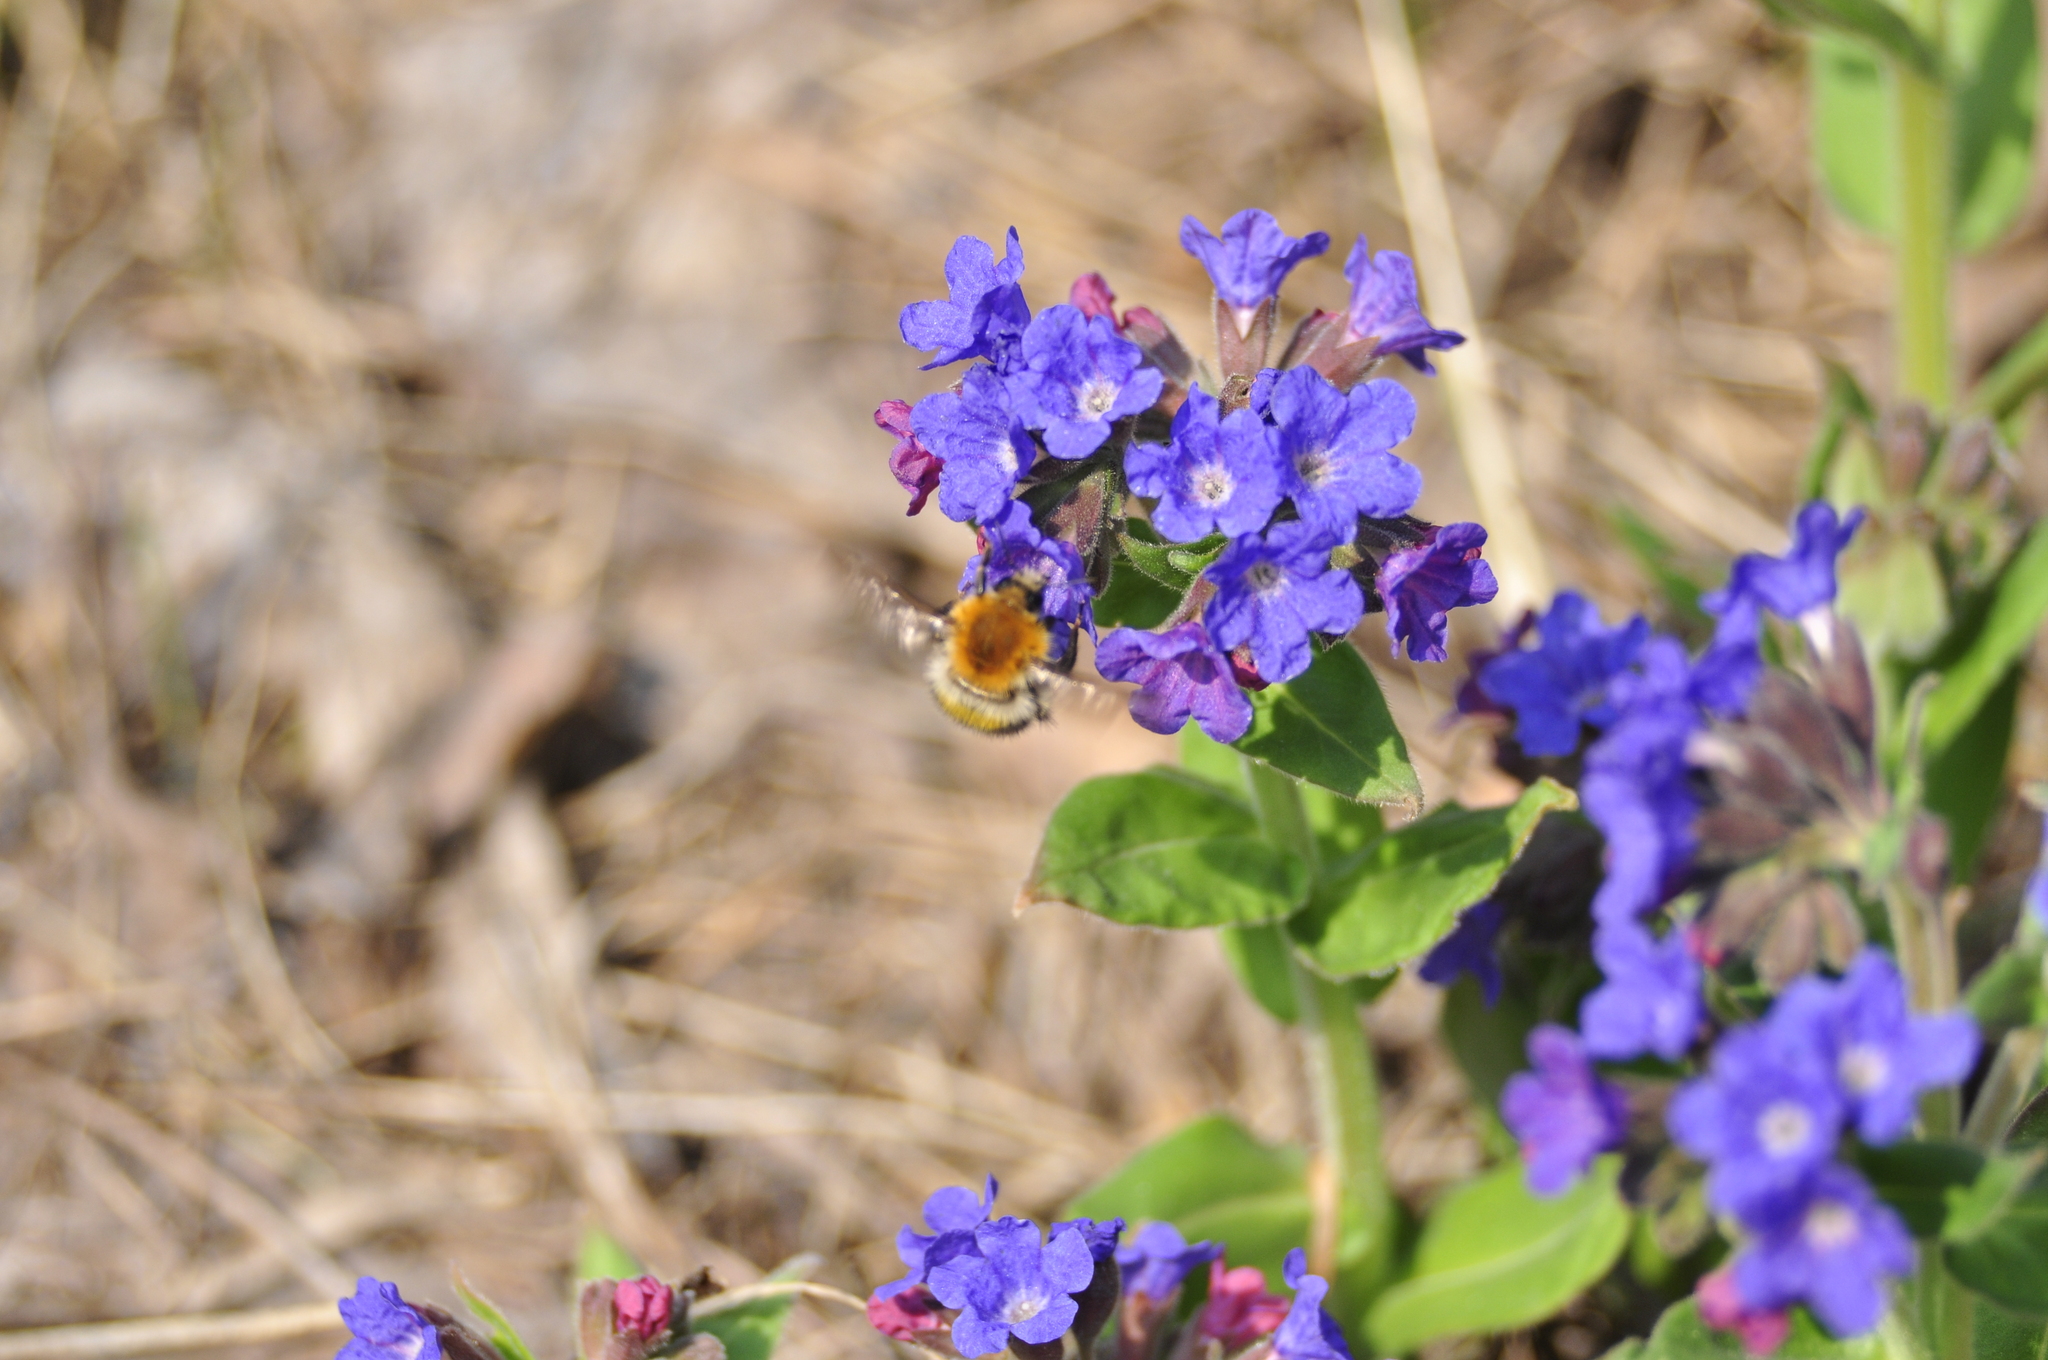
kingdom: Plantae
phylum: Tracheophyta
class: Magnoliopsida
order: Boraginales
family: Boraginaceae
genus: Pulmonaria
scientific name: Pulmonaria mollis
